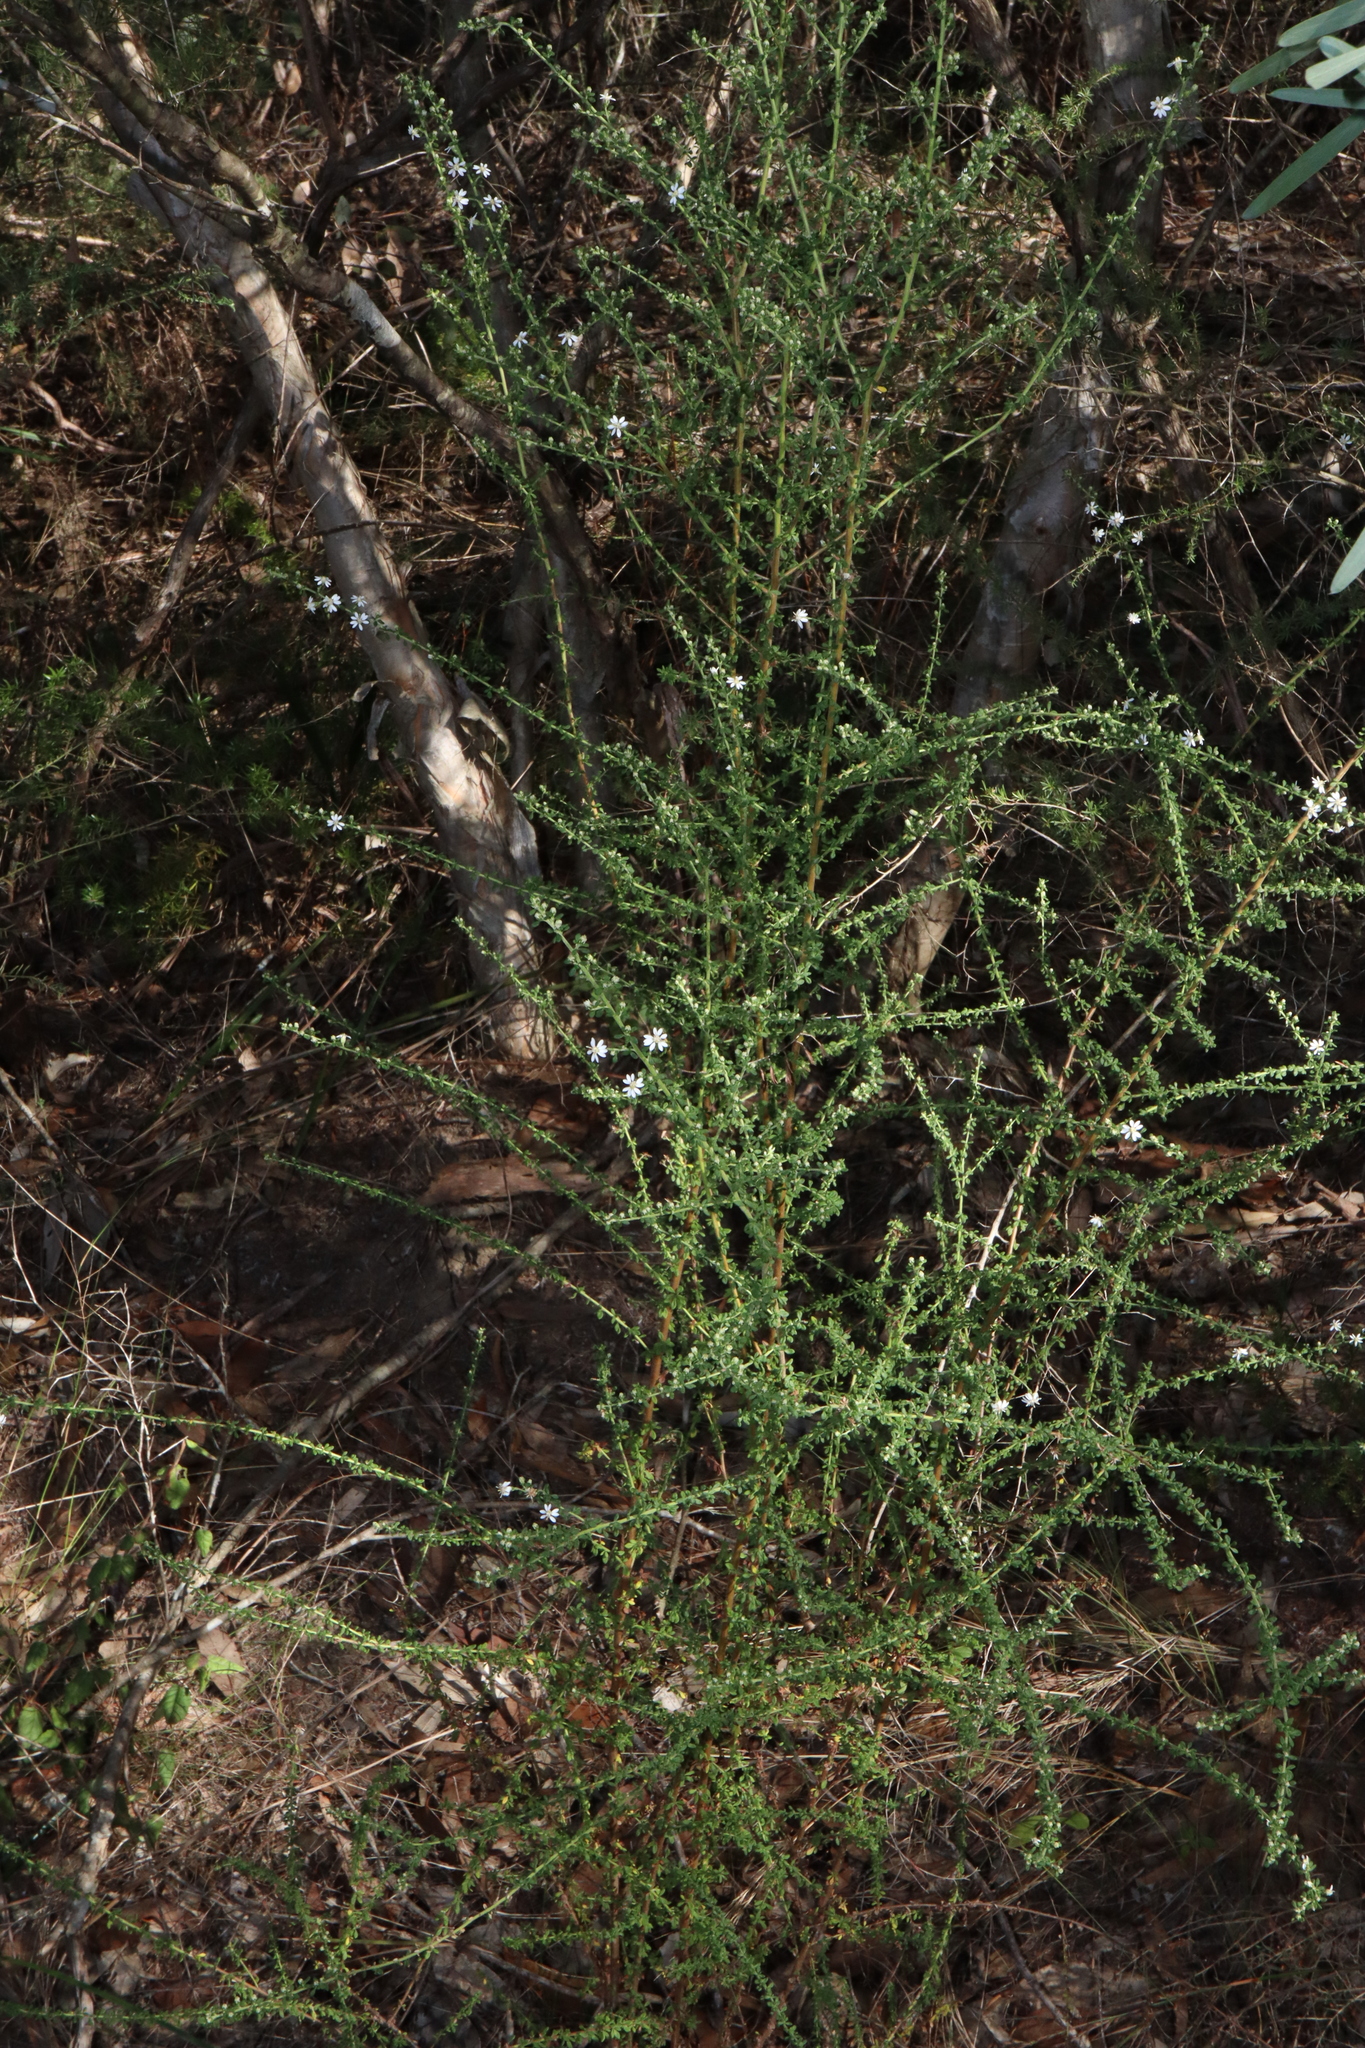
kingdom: Plantae
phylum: Tracheophyta
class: Magnoliopsida
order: Asterales
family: Asteraceae
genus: Olearia
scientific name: Olearia microphylla
